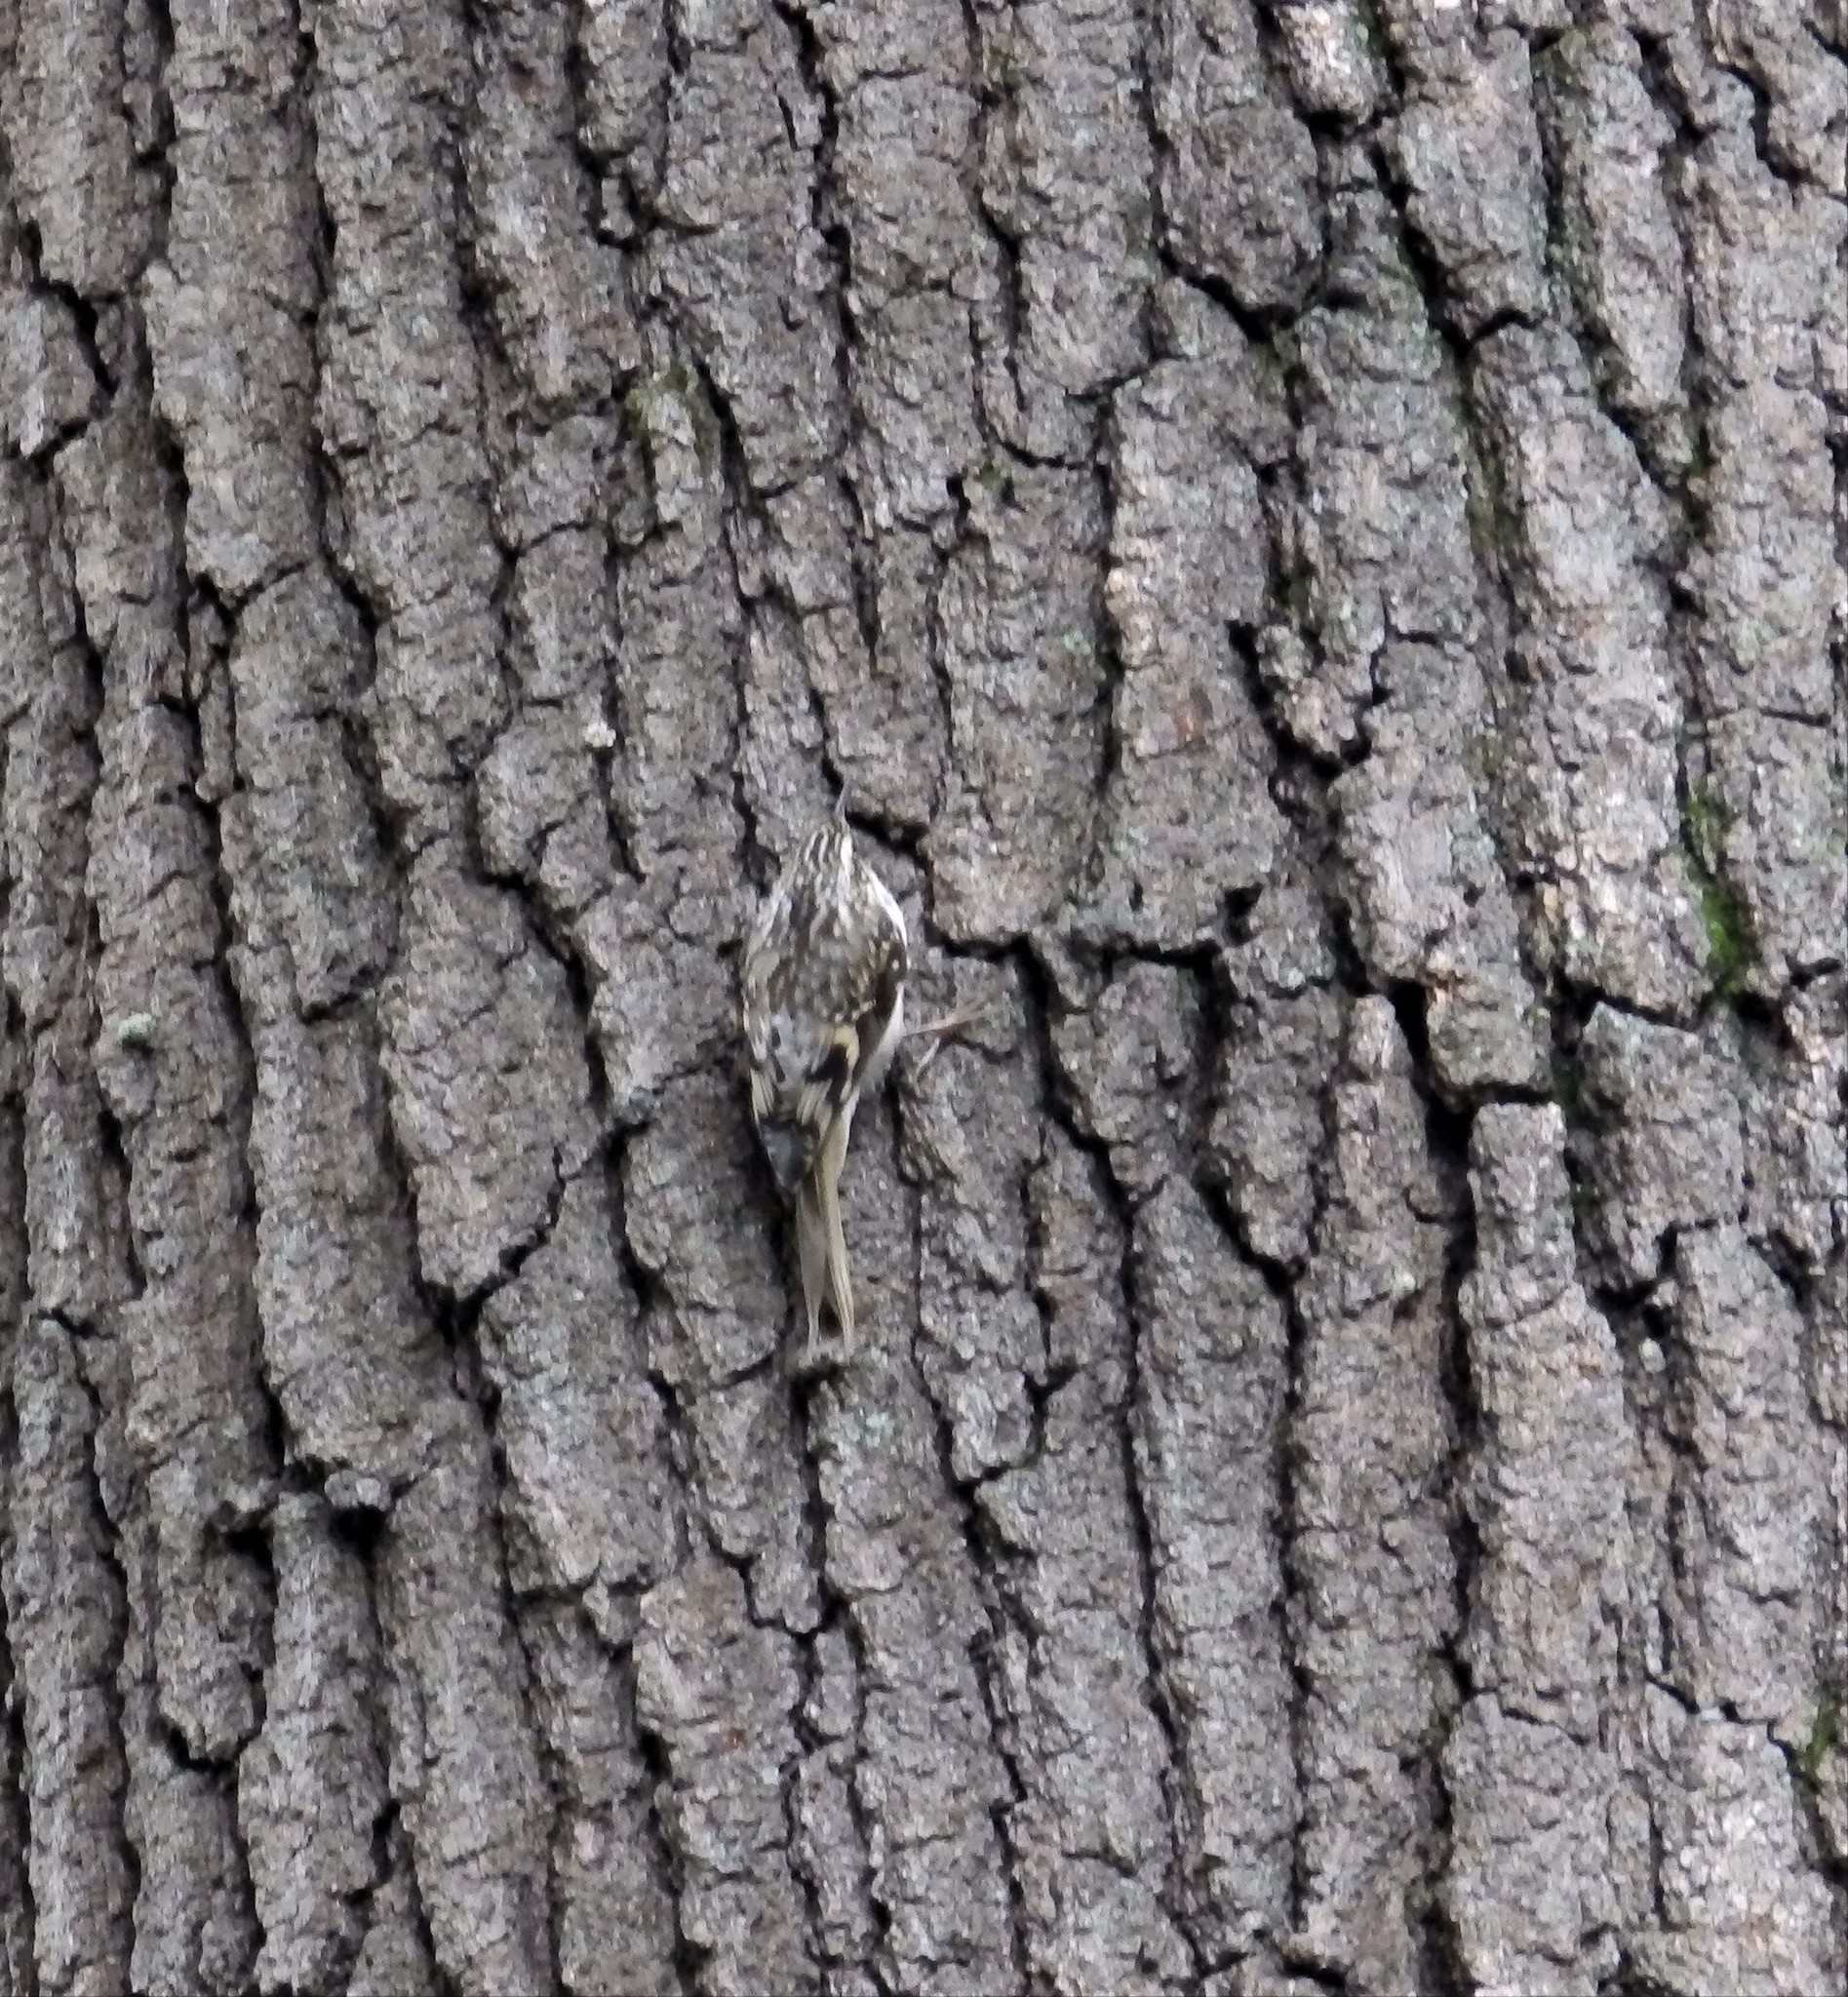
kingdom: Animalia
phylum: Chordata
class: Aves
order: Passeriformes
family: Certhiidae
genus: Certhia
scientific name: Certhia americana
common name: Brown creeper
